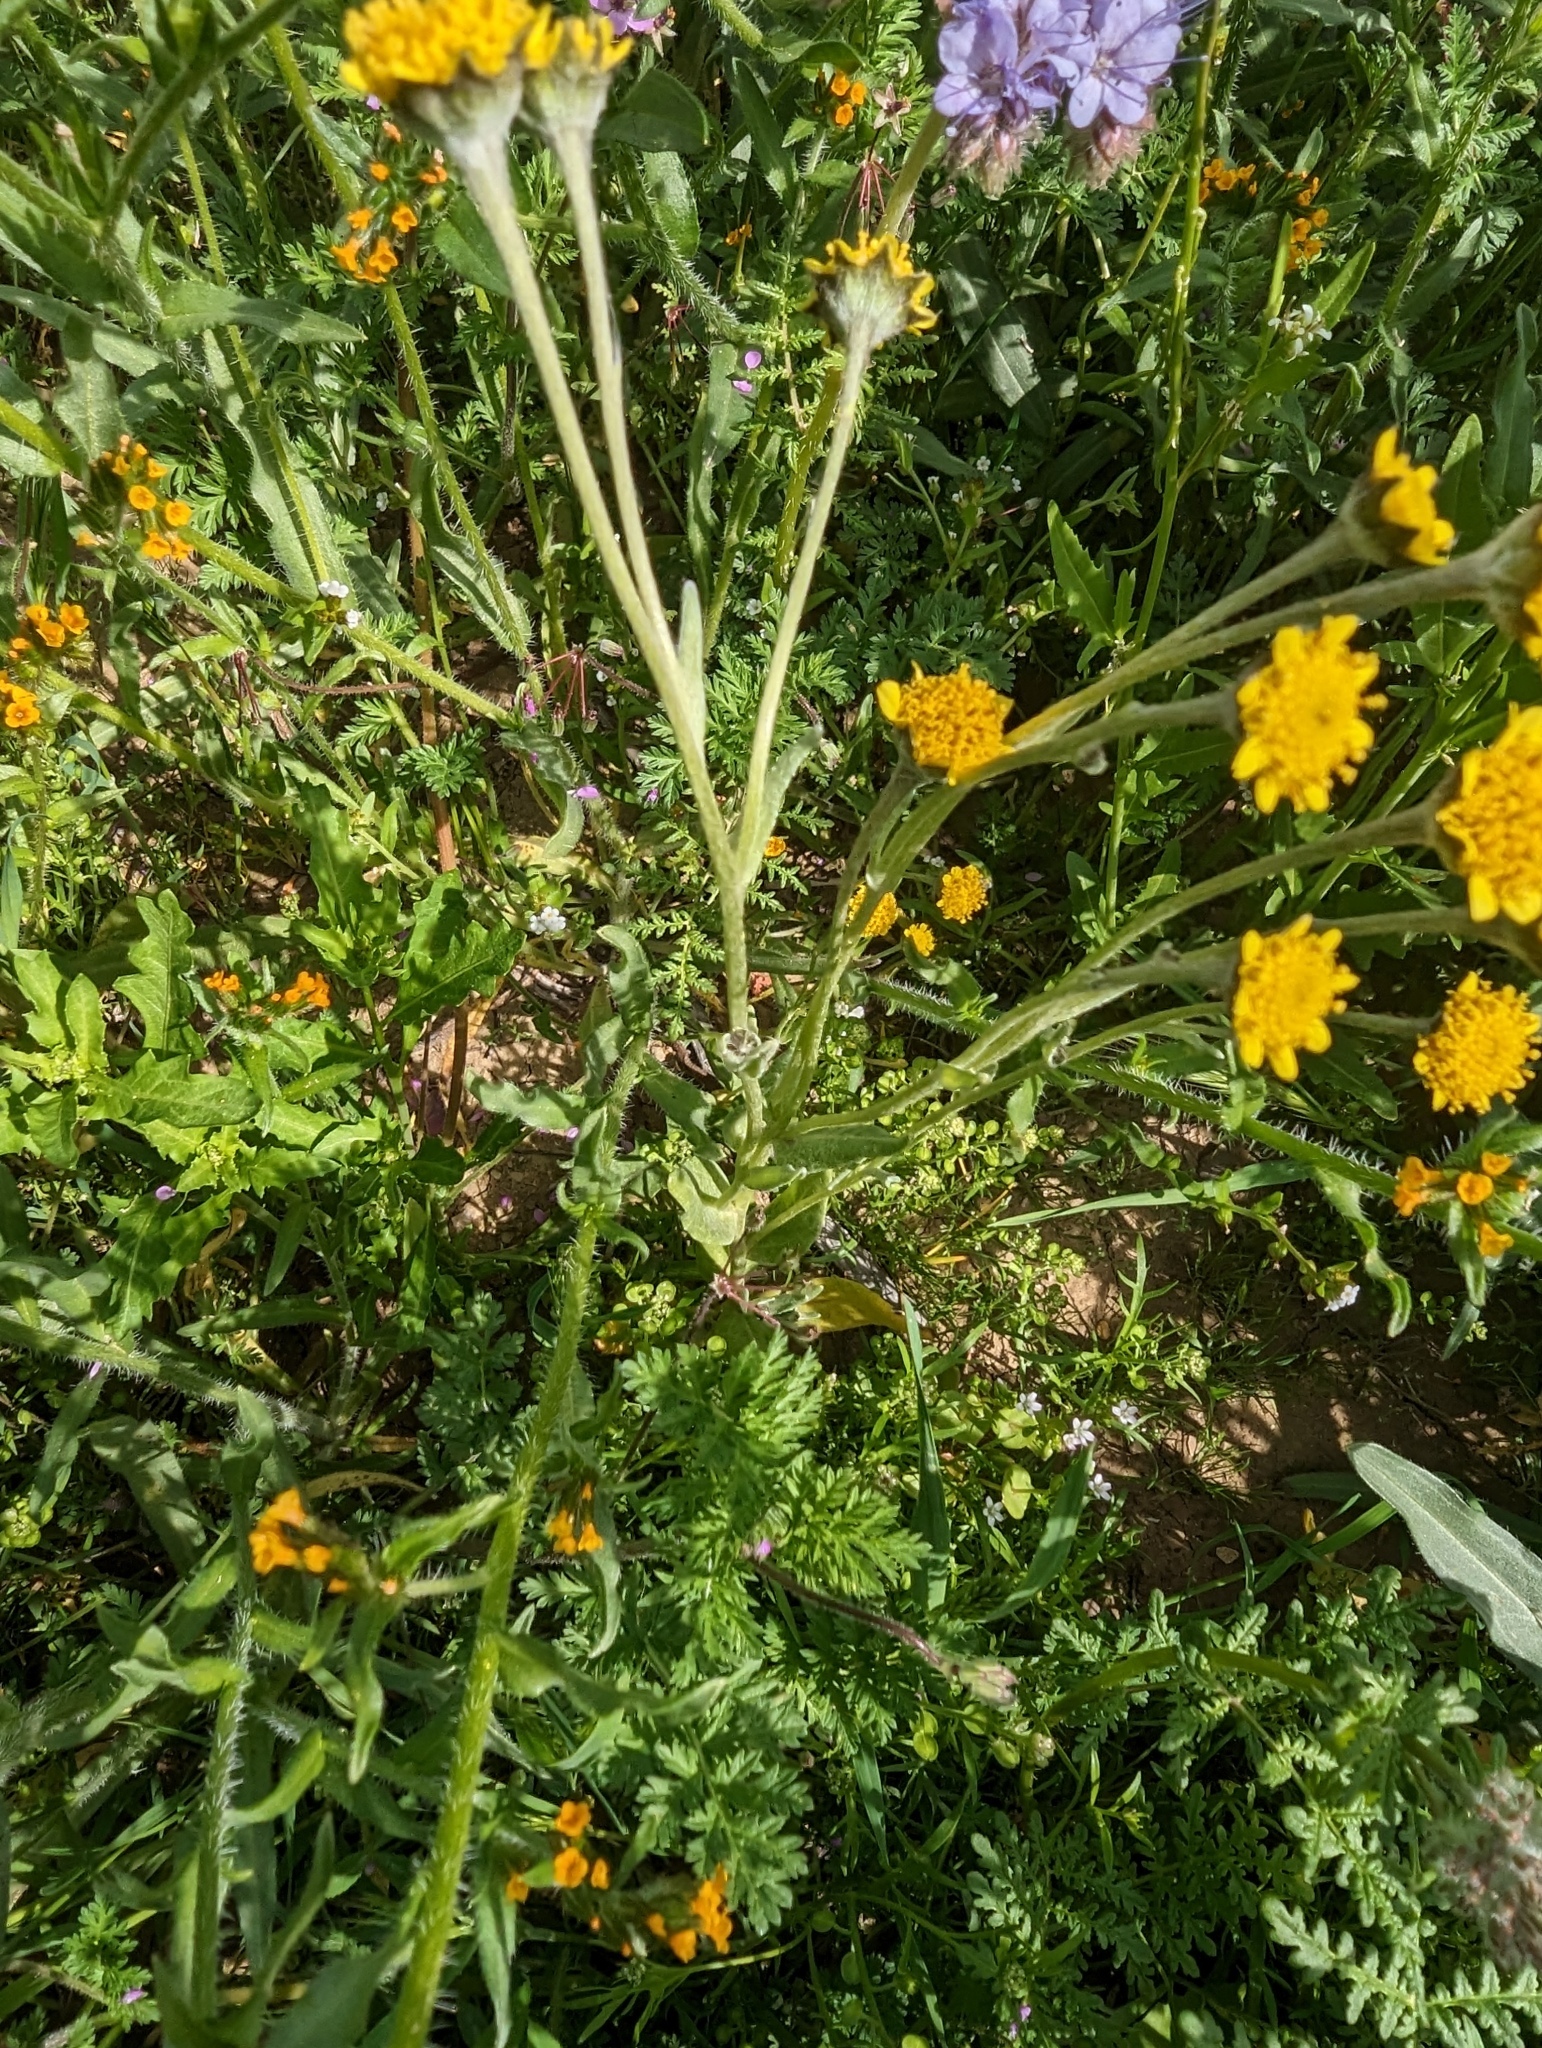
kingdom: Plantae
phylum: Tracheophyta
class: Magnoliopsida
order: Asterales
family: Asteraceae
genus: Monolopia
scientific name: Monolopia stricta
